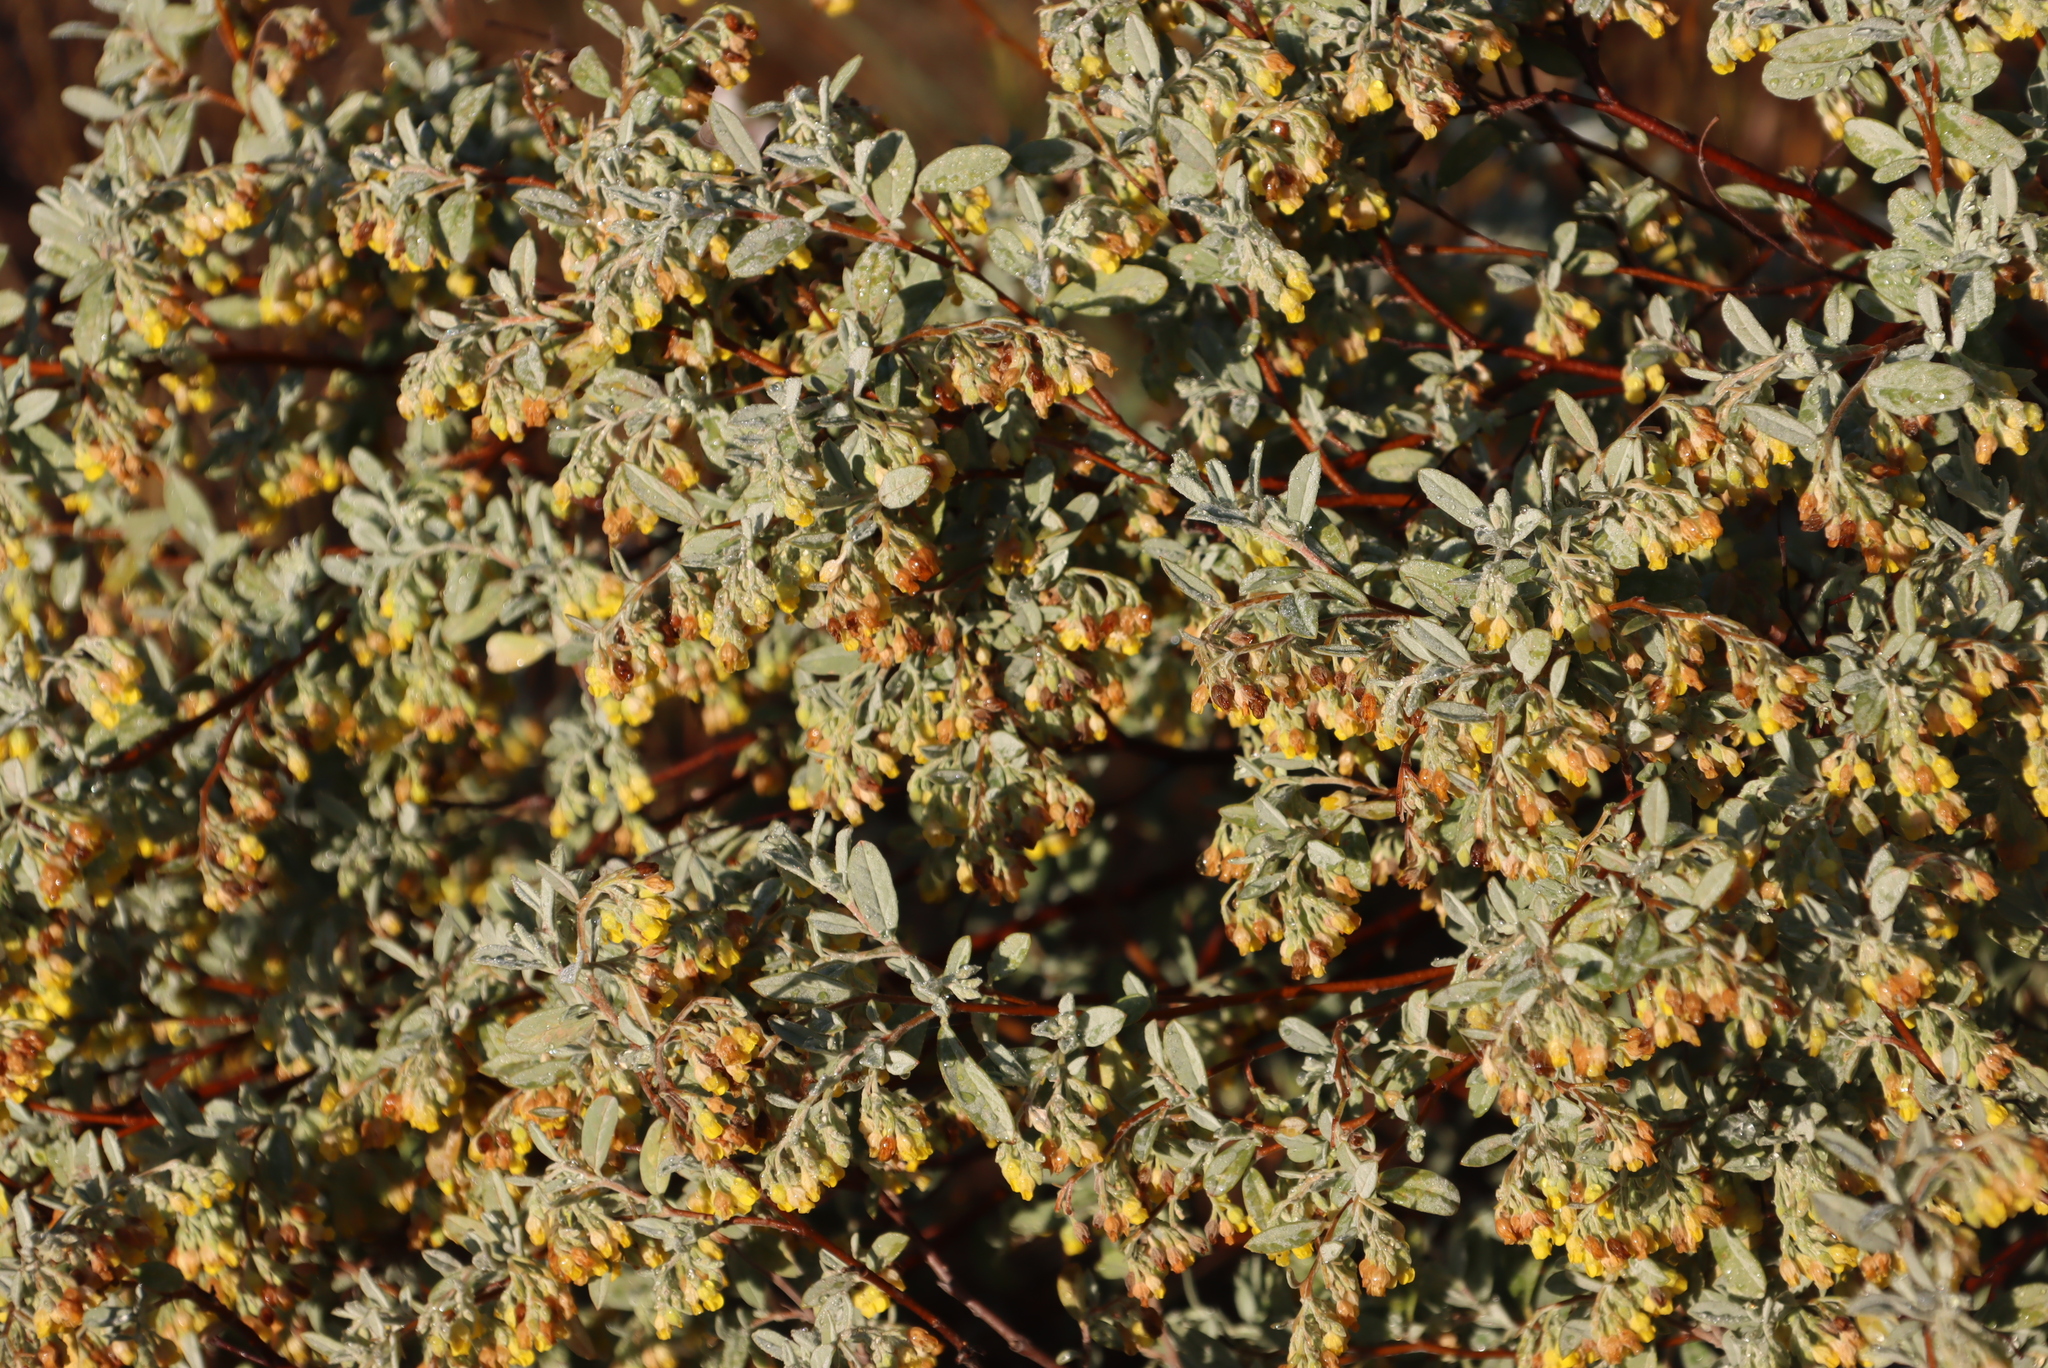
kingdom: Plantae
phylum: Tracheophyta
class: Magnoliopsida
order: Malvales
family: Malvaceae
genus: Hermannia
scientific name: Hermannia holosericea
